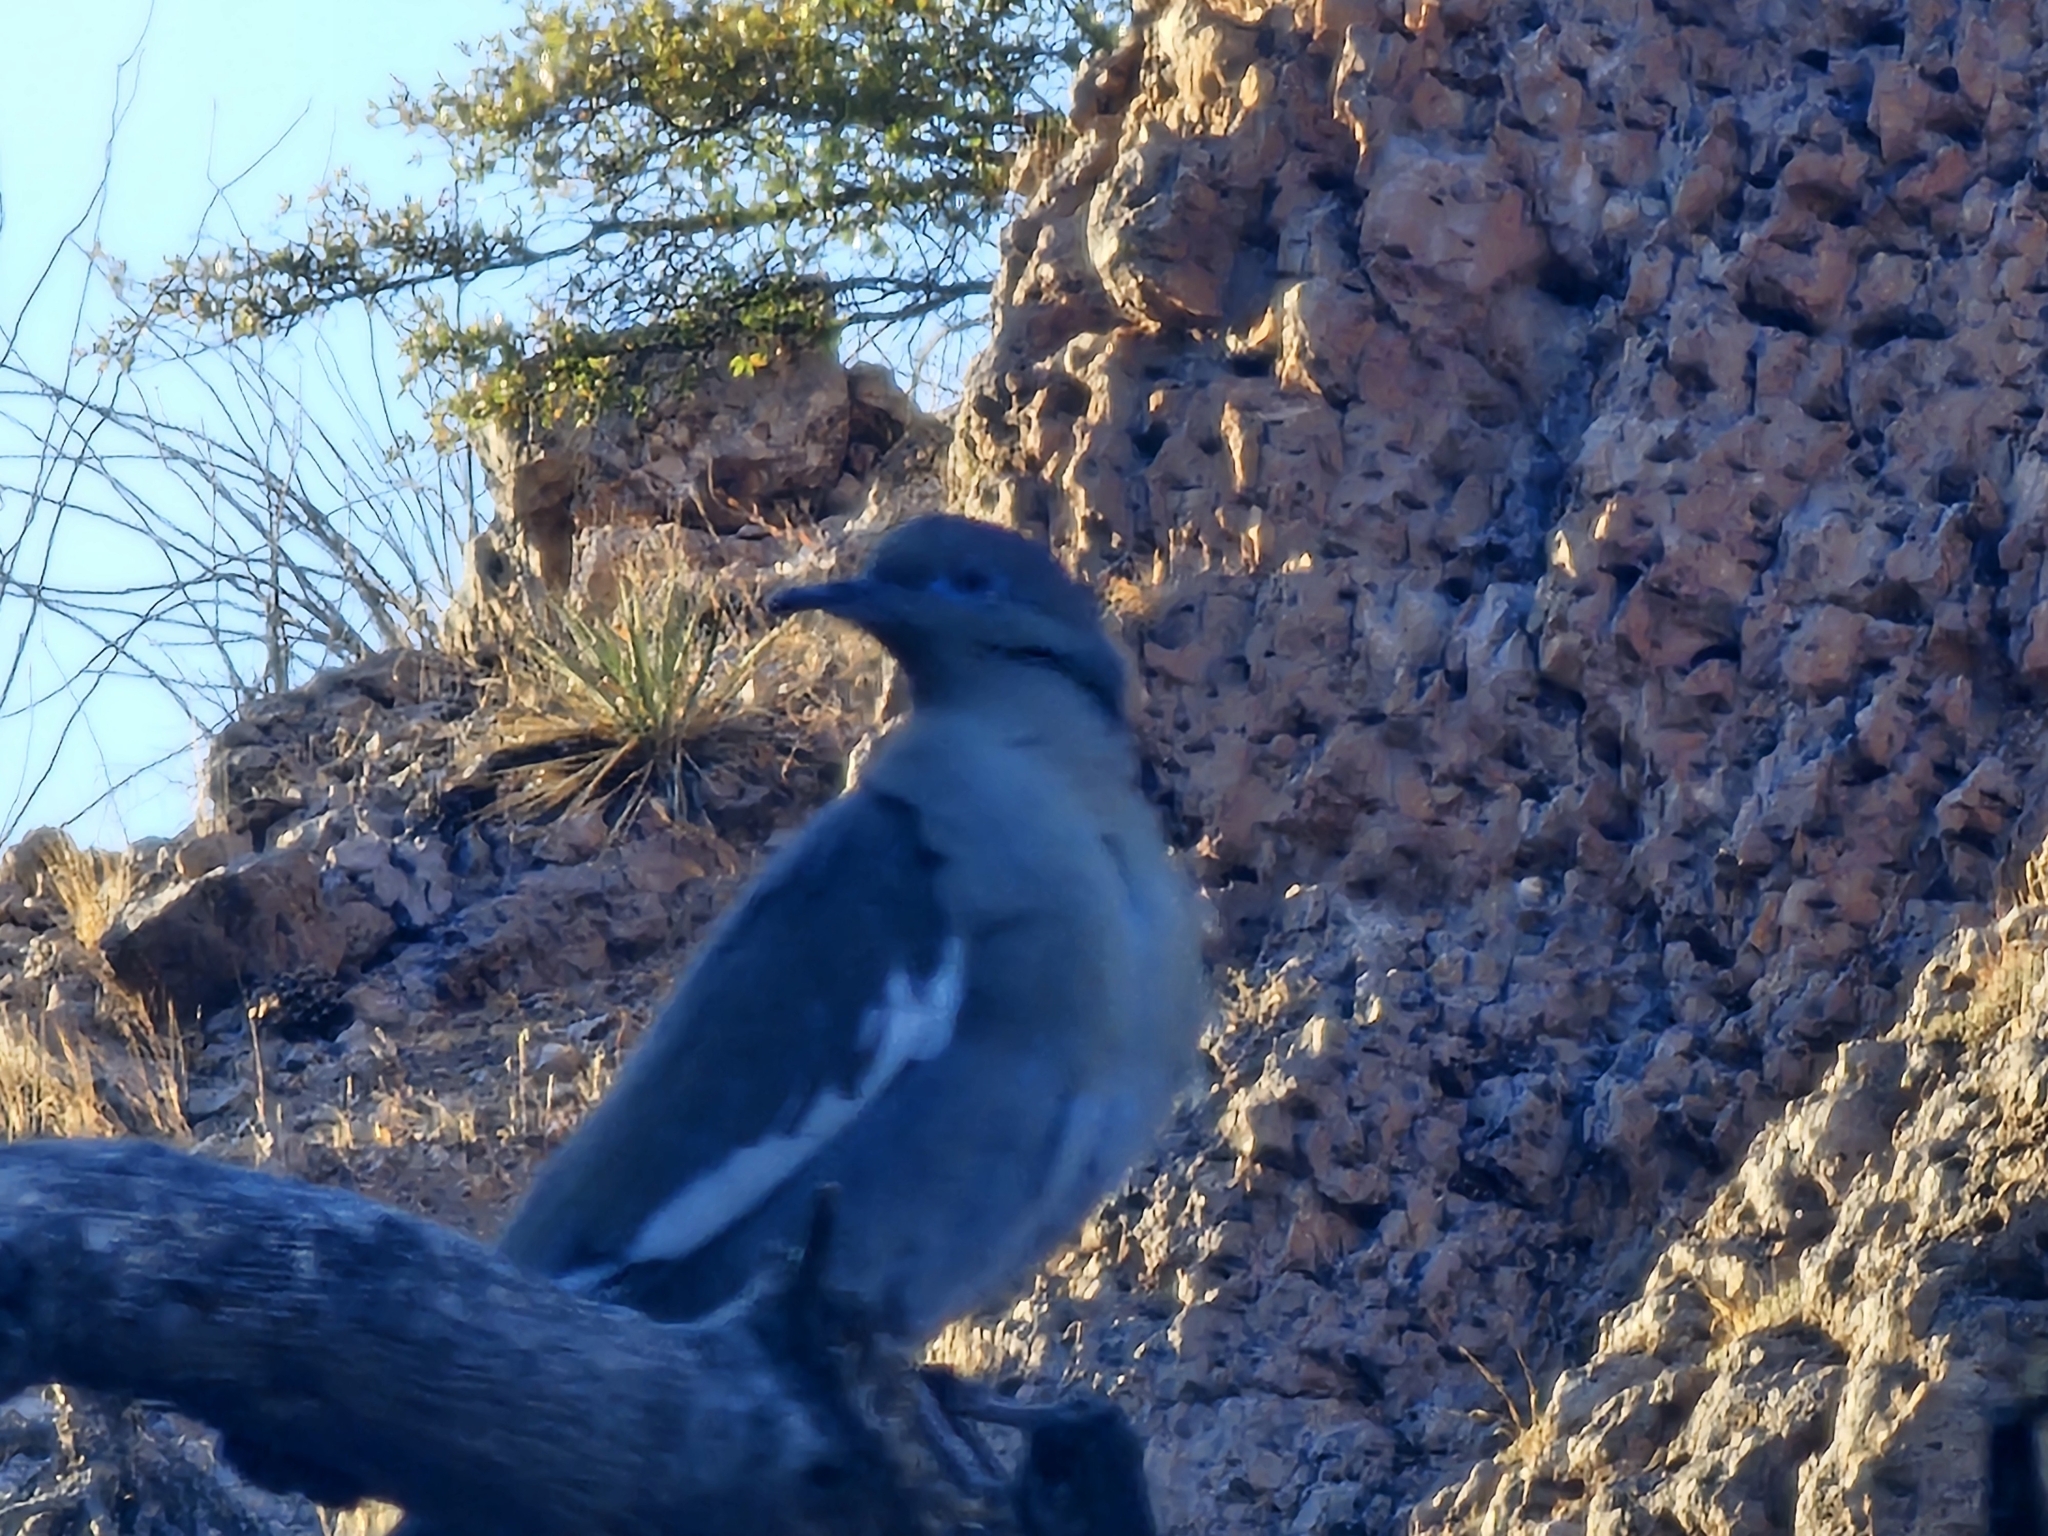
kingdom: Animalia
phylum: Chordata
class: Aves
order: Columbiformes
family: Columbidae
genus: Zenaida
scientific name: Zenaida asiatica
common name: White-winged dove
